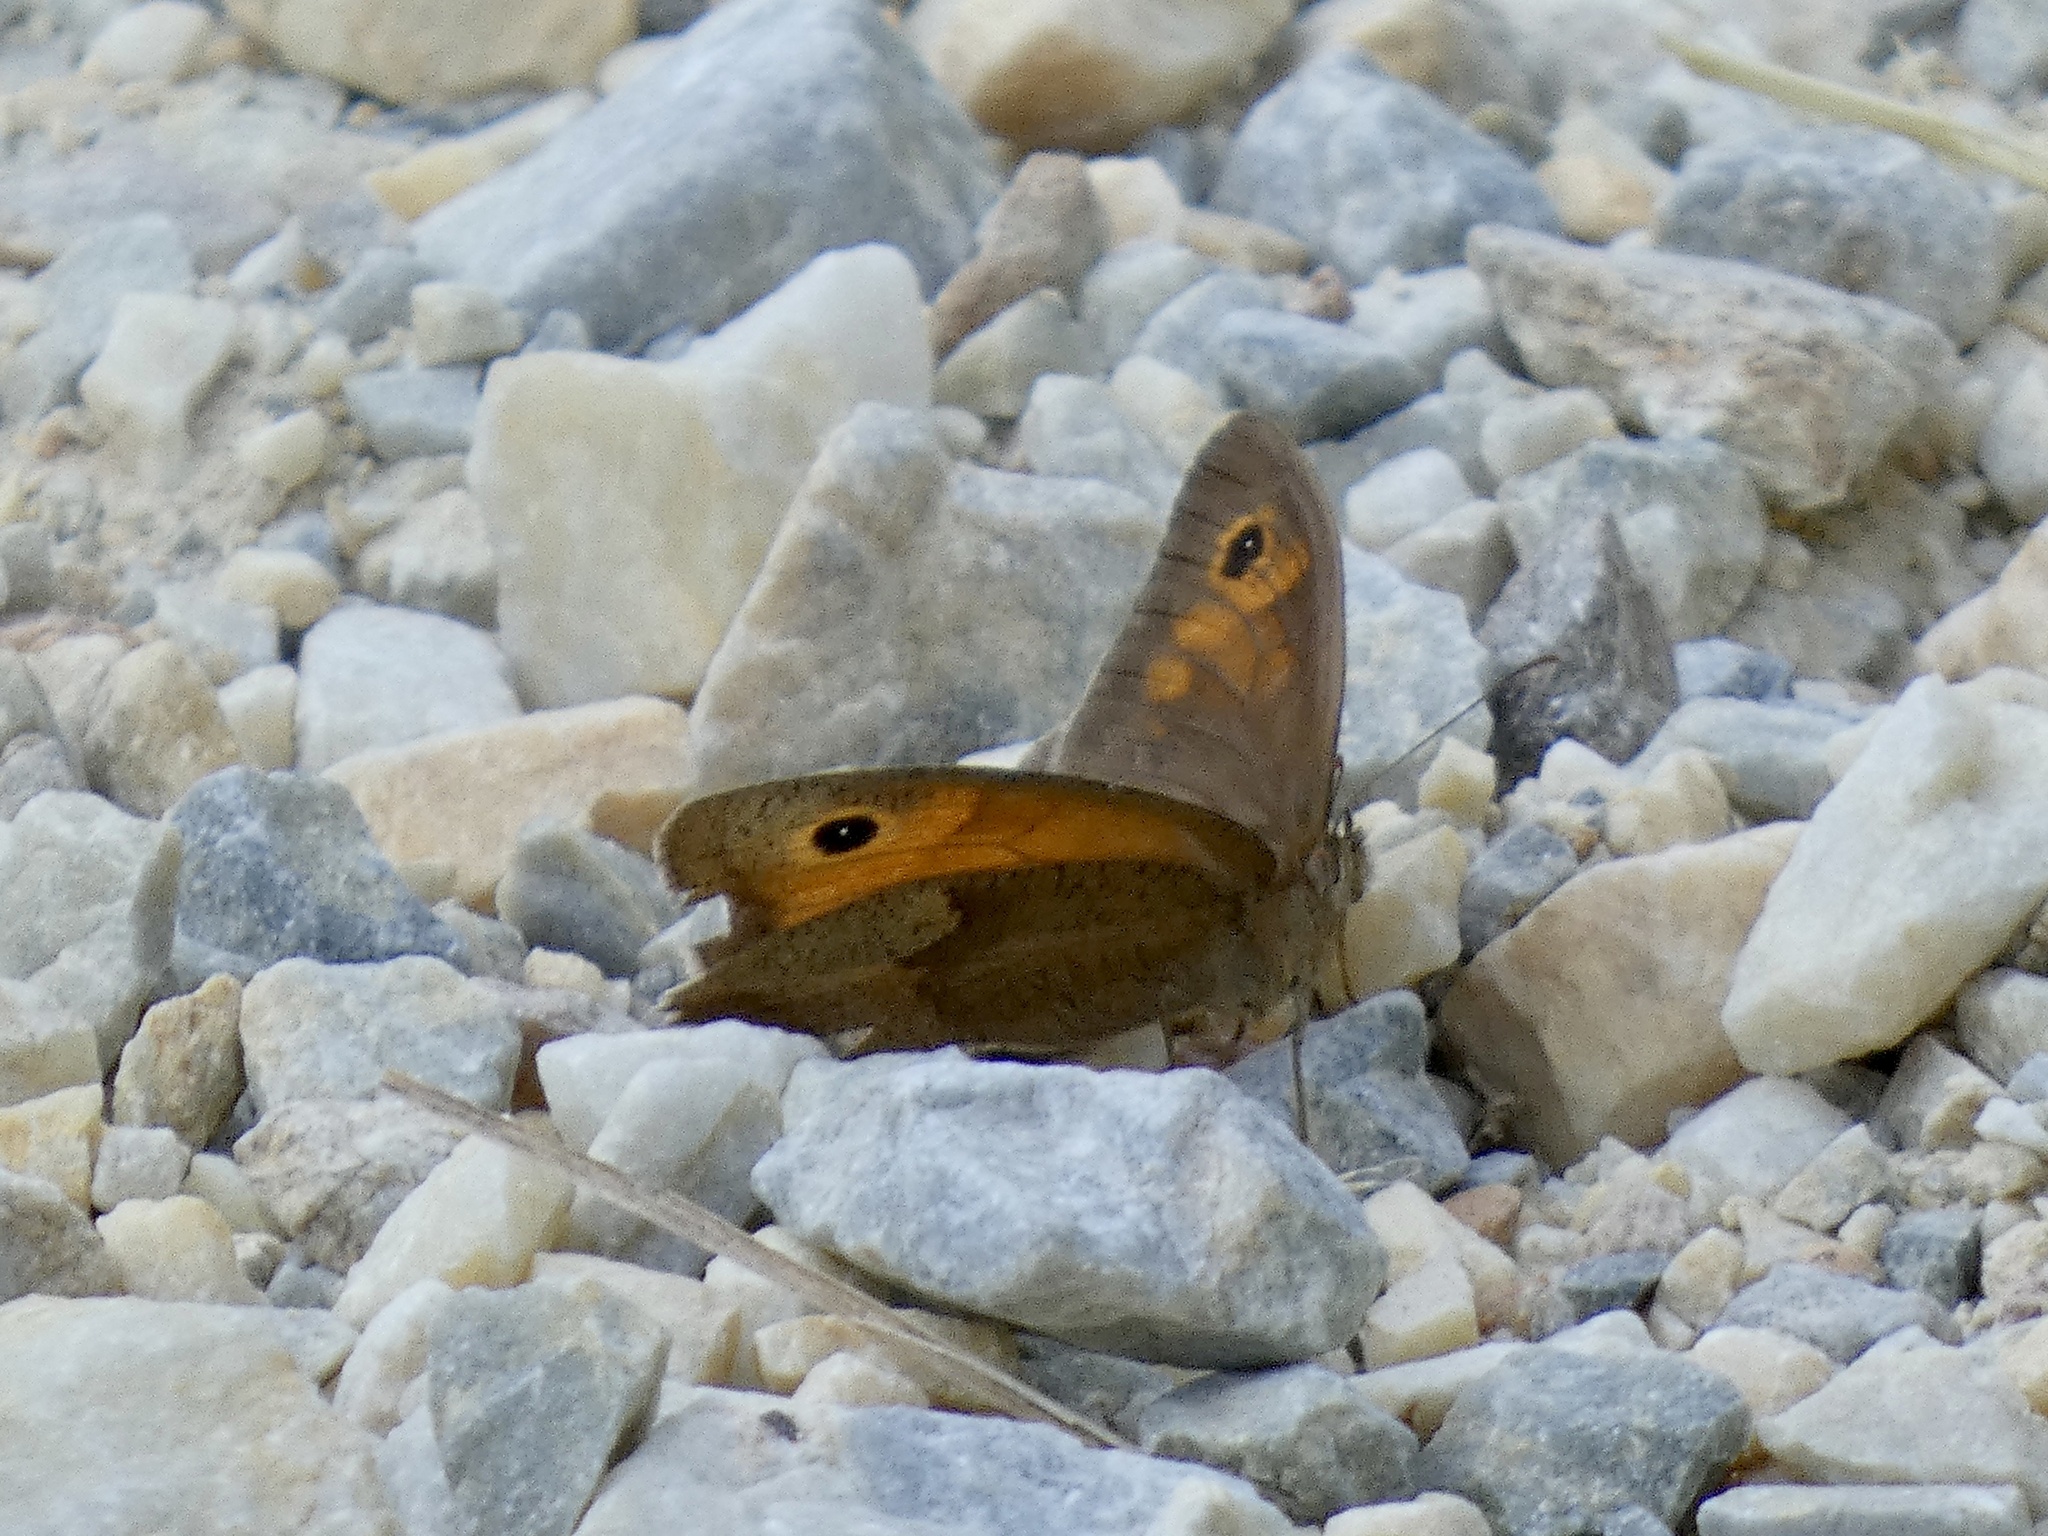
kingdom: Animalia
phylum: Arthropoda
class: Insecta
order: Lepidoptera
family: Nymphalidae
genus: Maniola
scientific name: Maniola jurtina
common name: Meadow brown
